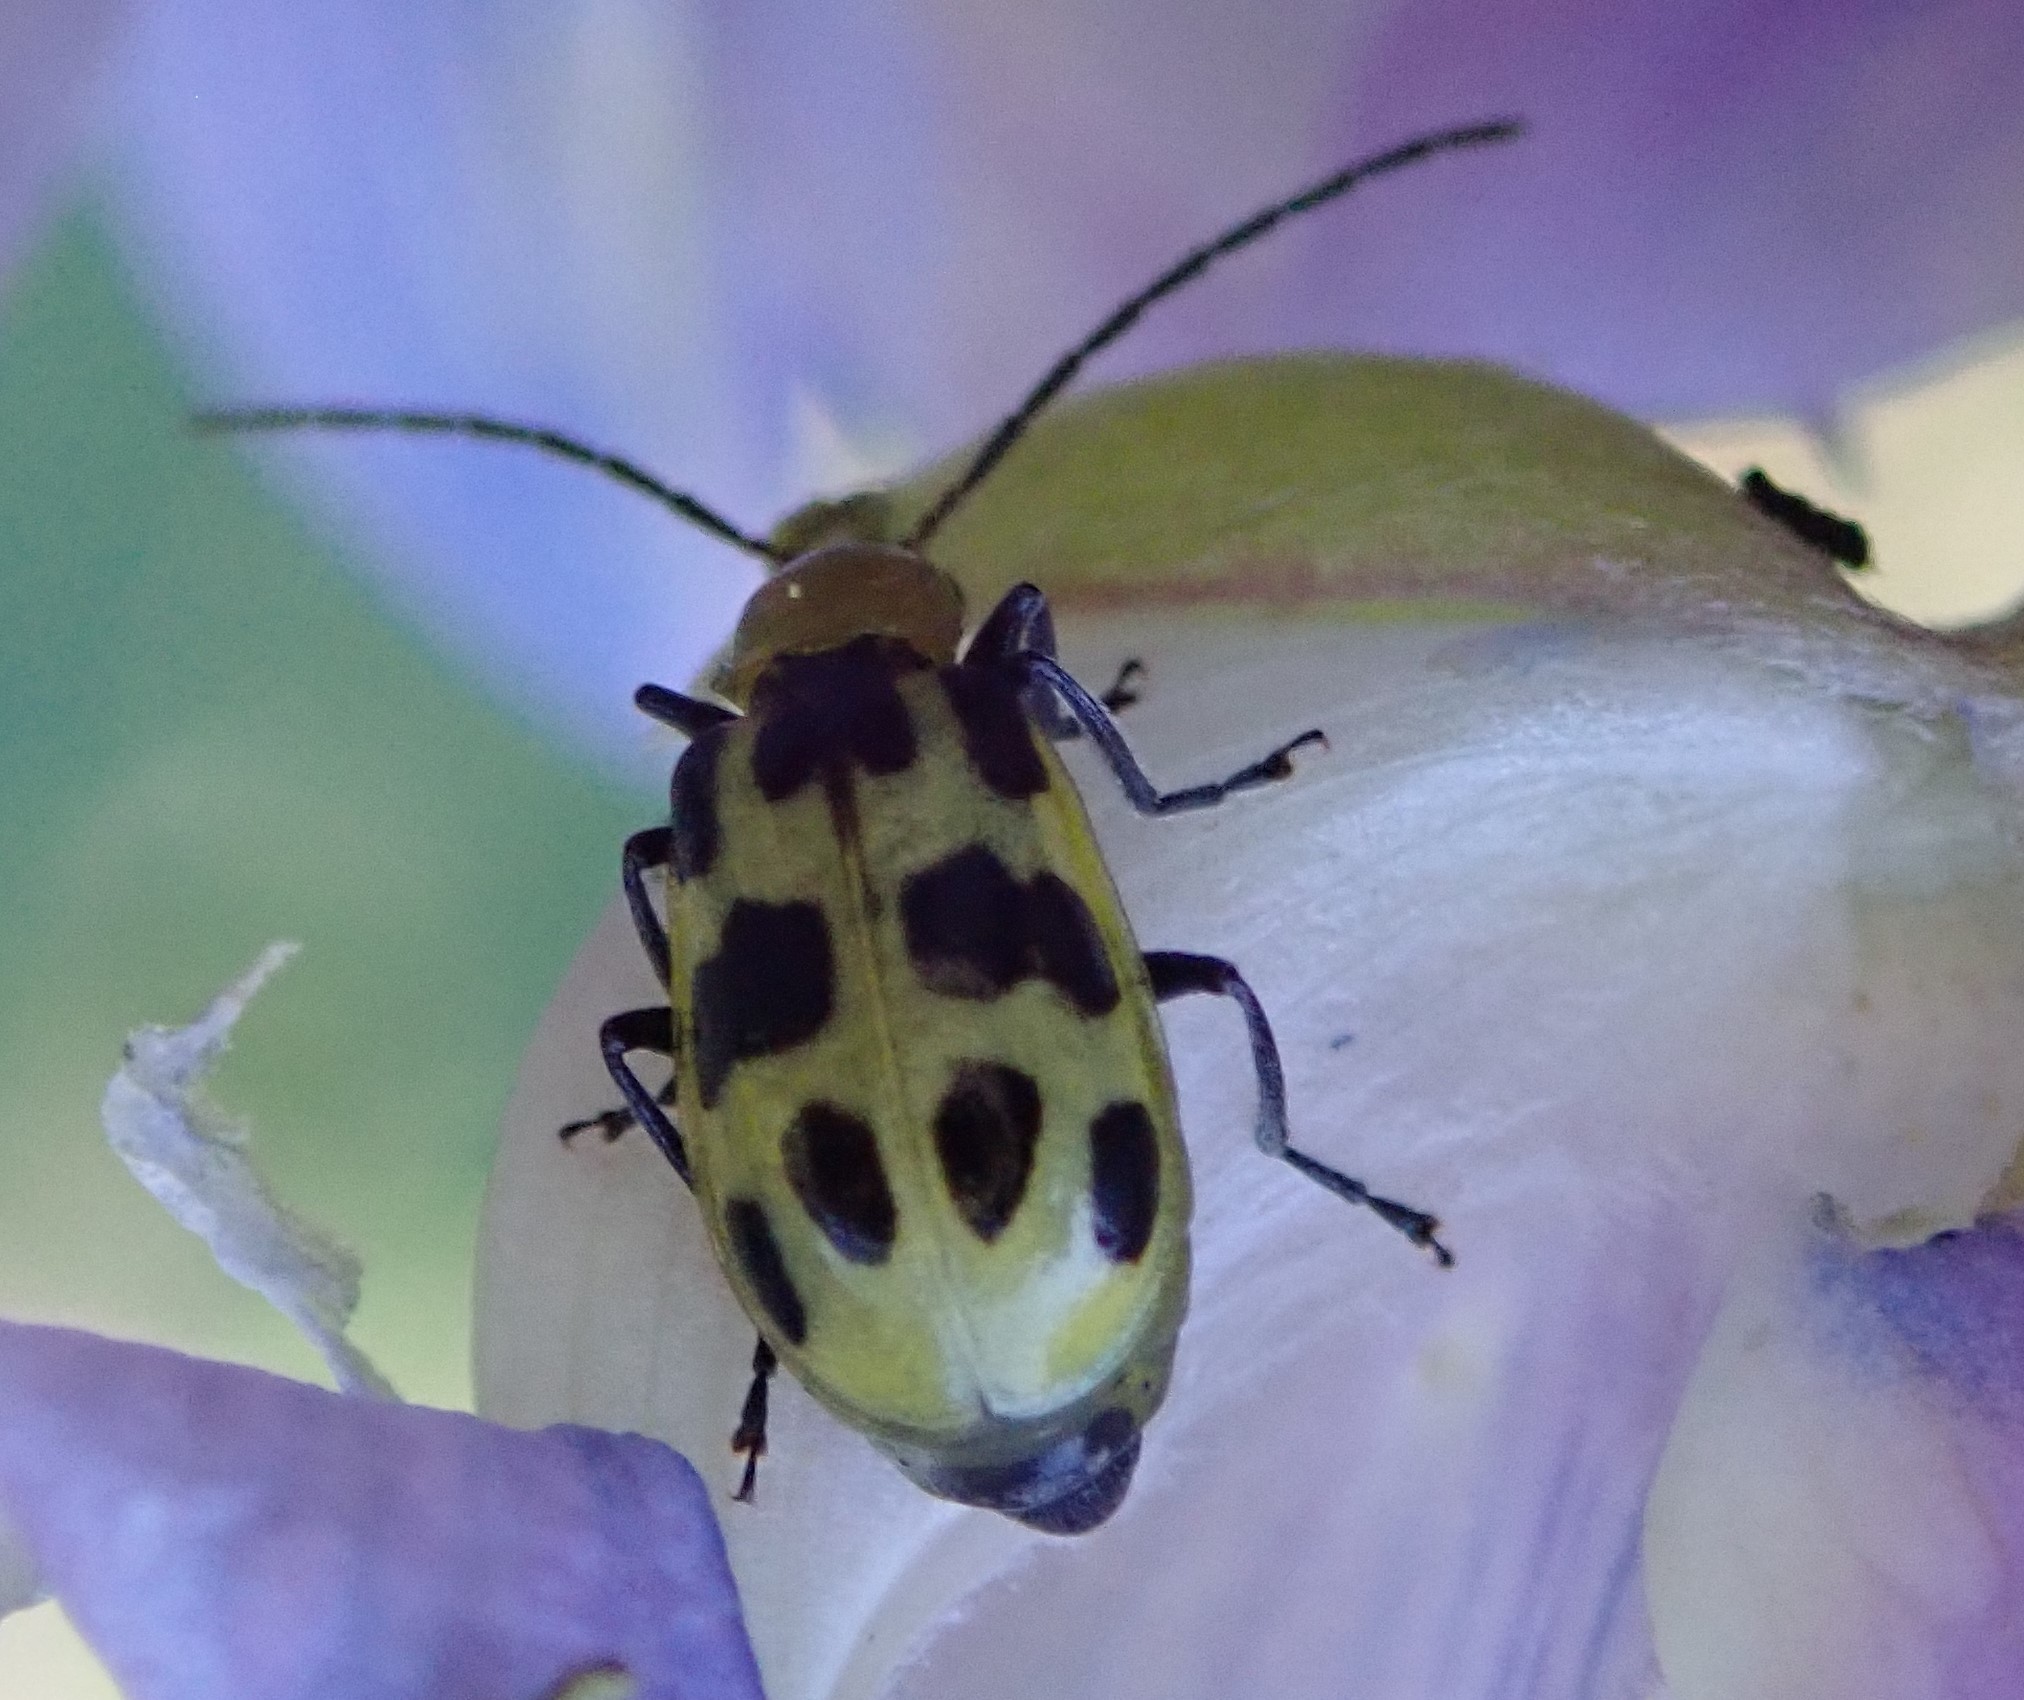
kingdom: Animalia
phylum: Arthropoda
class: Insecta
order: Coleoptera
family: Chrysomelidae
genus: Diabrotica
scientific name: Diabrotica undecimpunctata
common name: Spotted cucumber beetle
